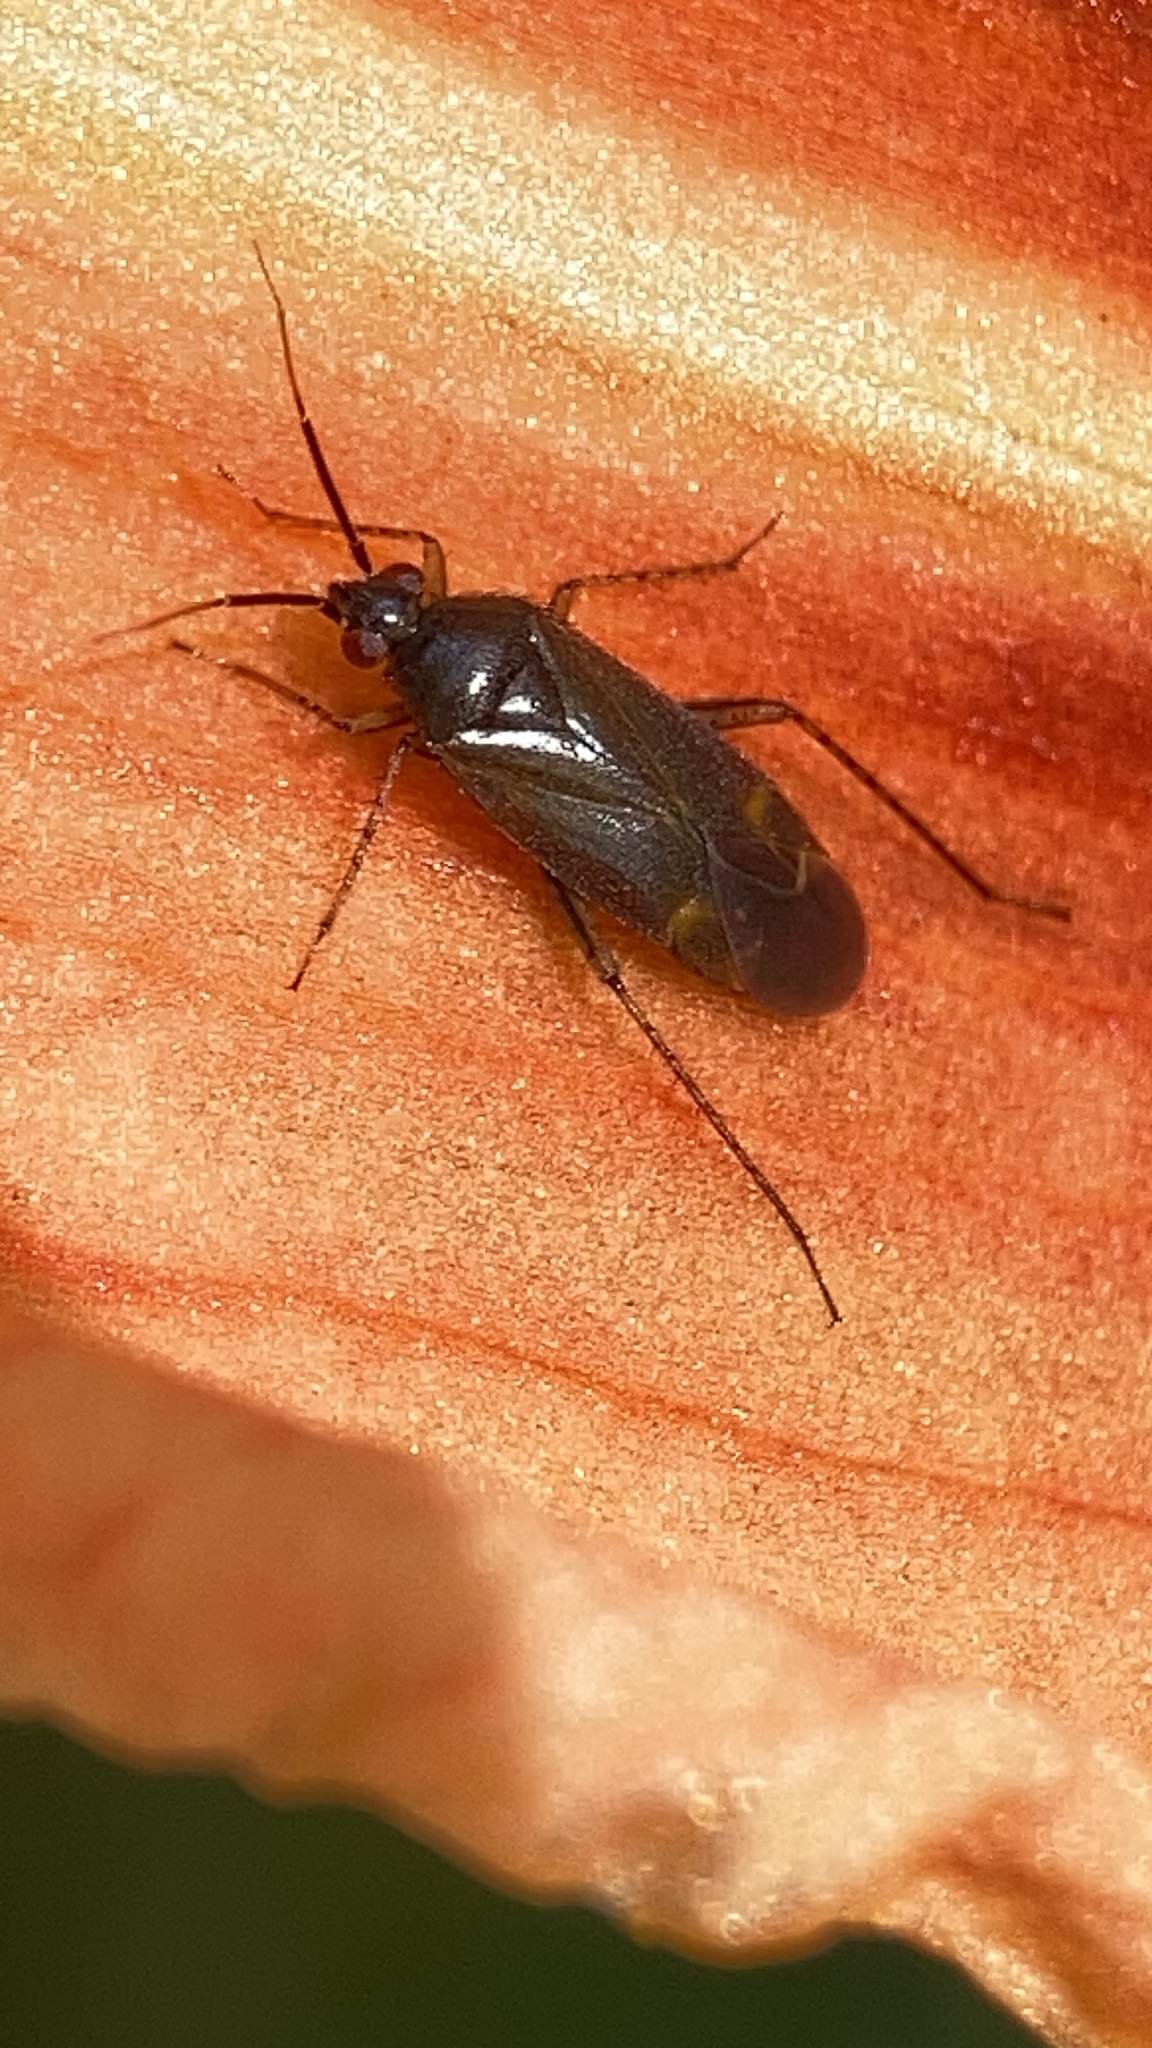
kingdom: Animalia
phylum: Arthropoda
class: Insecta
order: Hemiptera
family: Miridae
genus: Plagiognathus
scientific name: Plagiognathus arbustorum
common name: Plant bug
